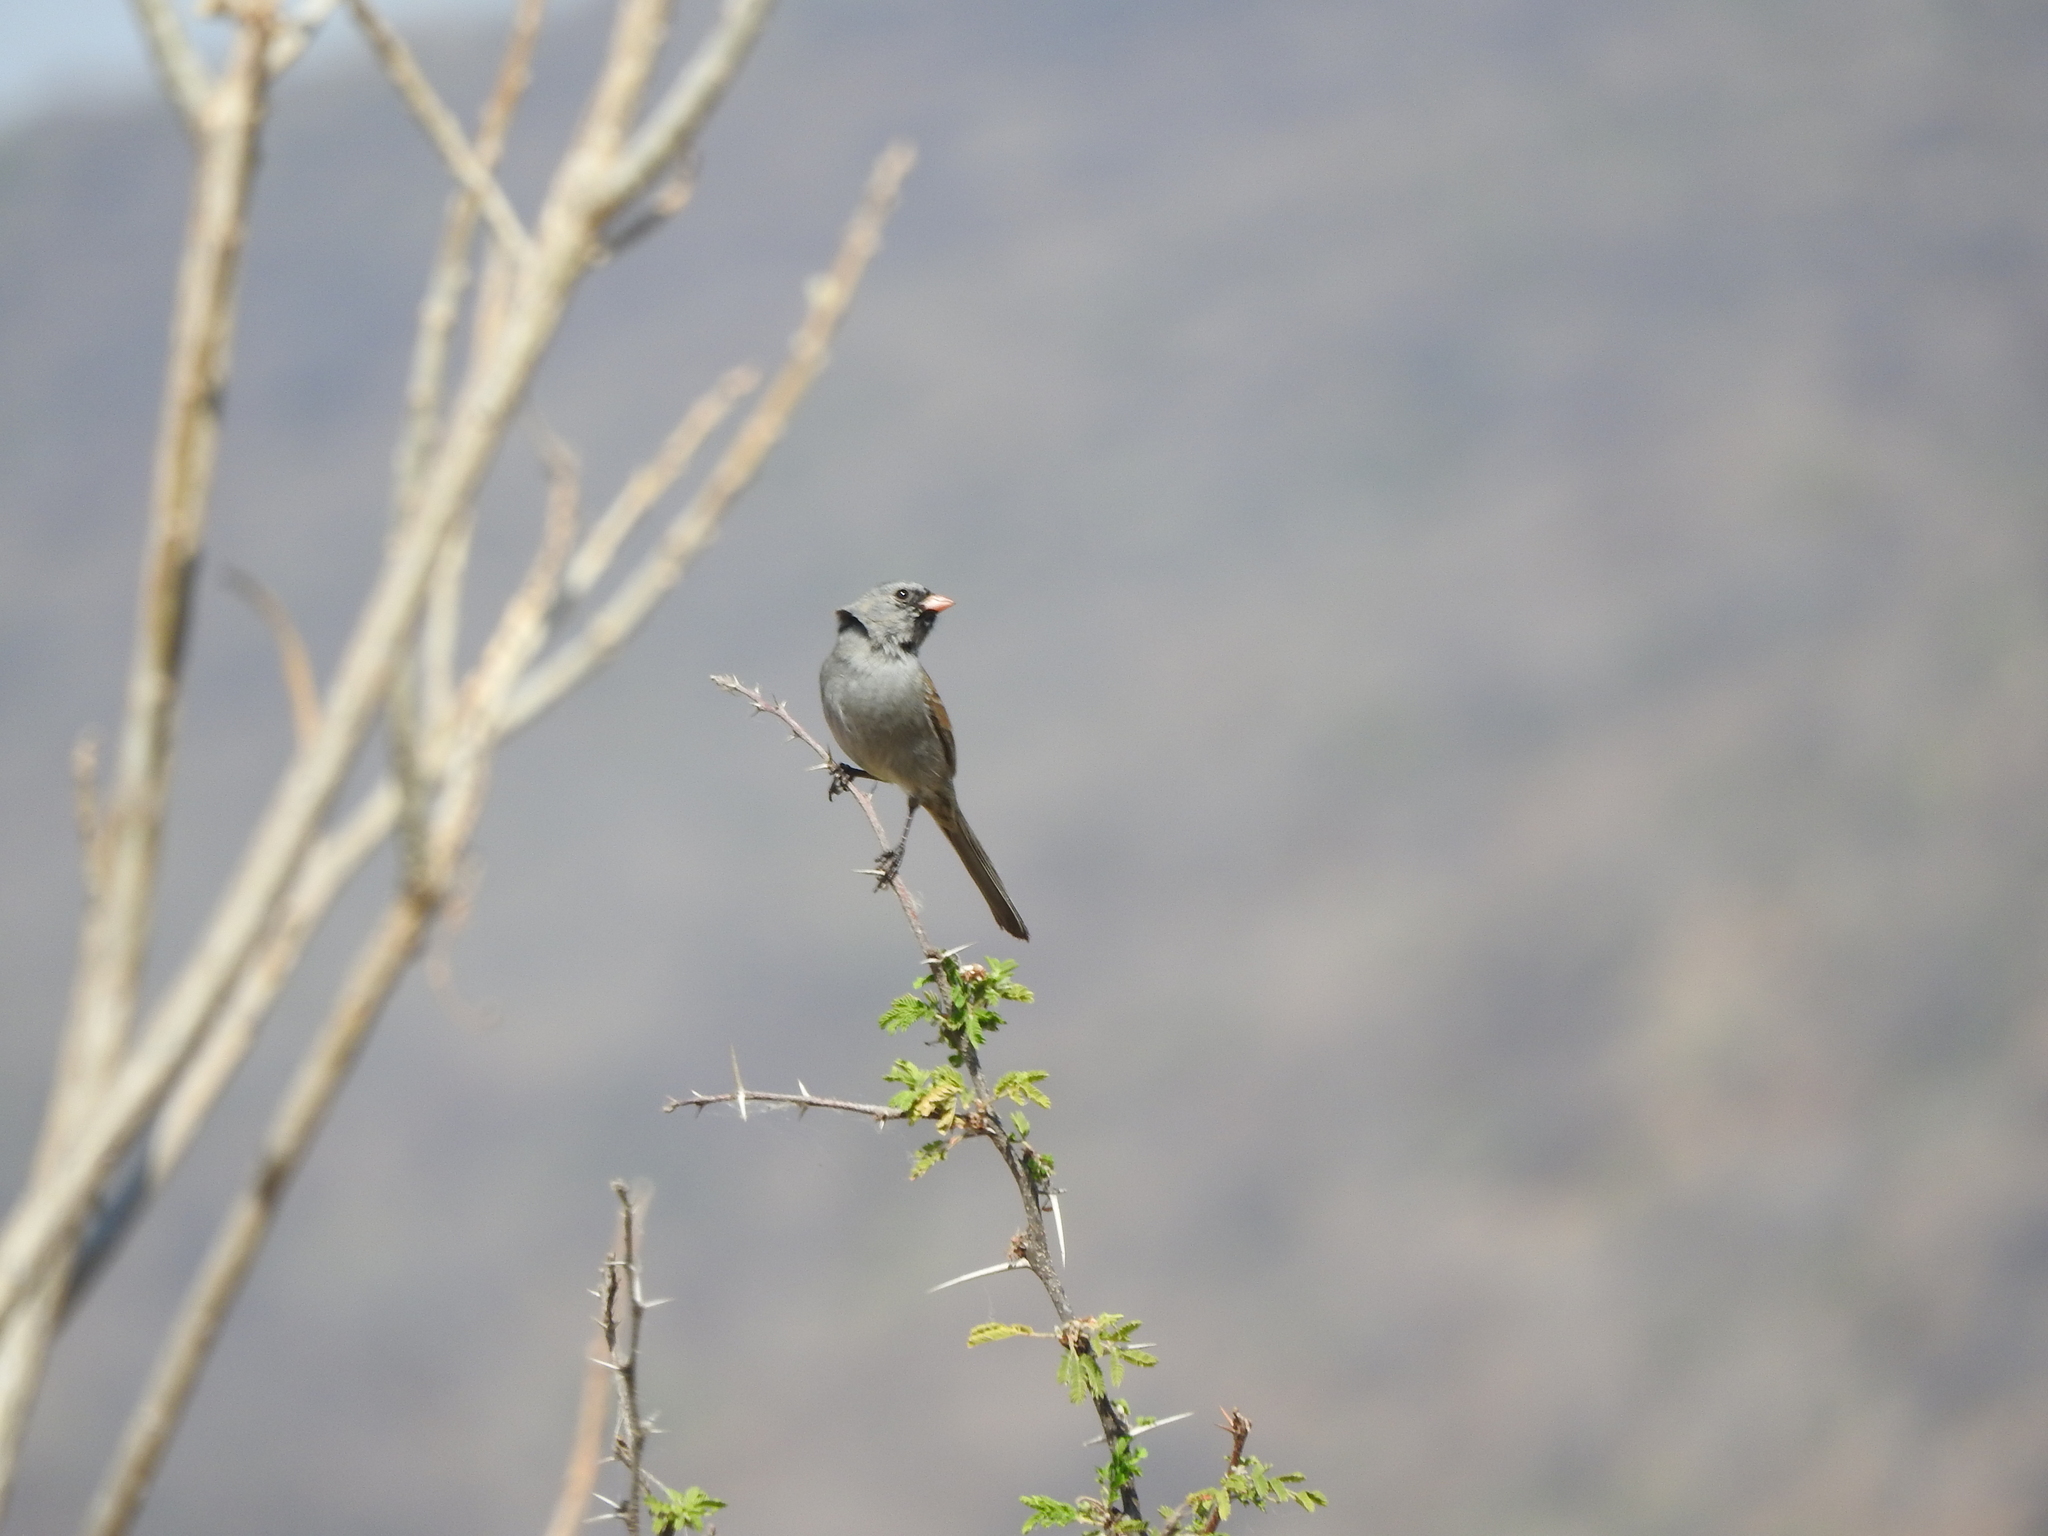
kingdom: Animalia
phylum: Chordata
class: Aves
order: Passeriformes
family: Passerellidae
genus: Spizella
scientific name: Spizella atrogularis
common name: Black-chinned sparrow
